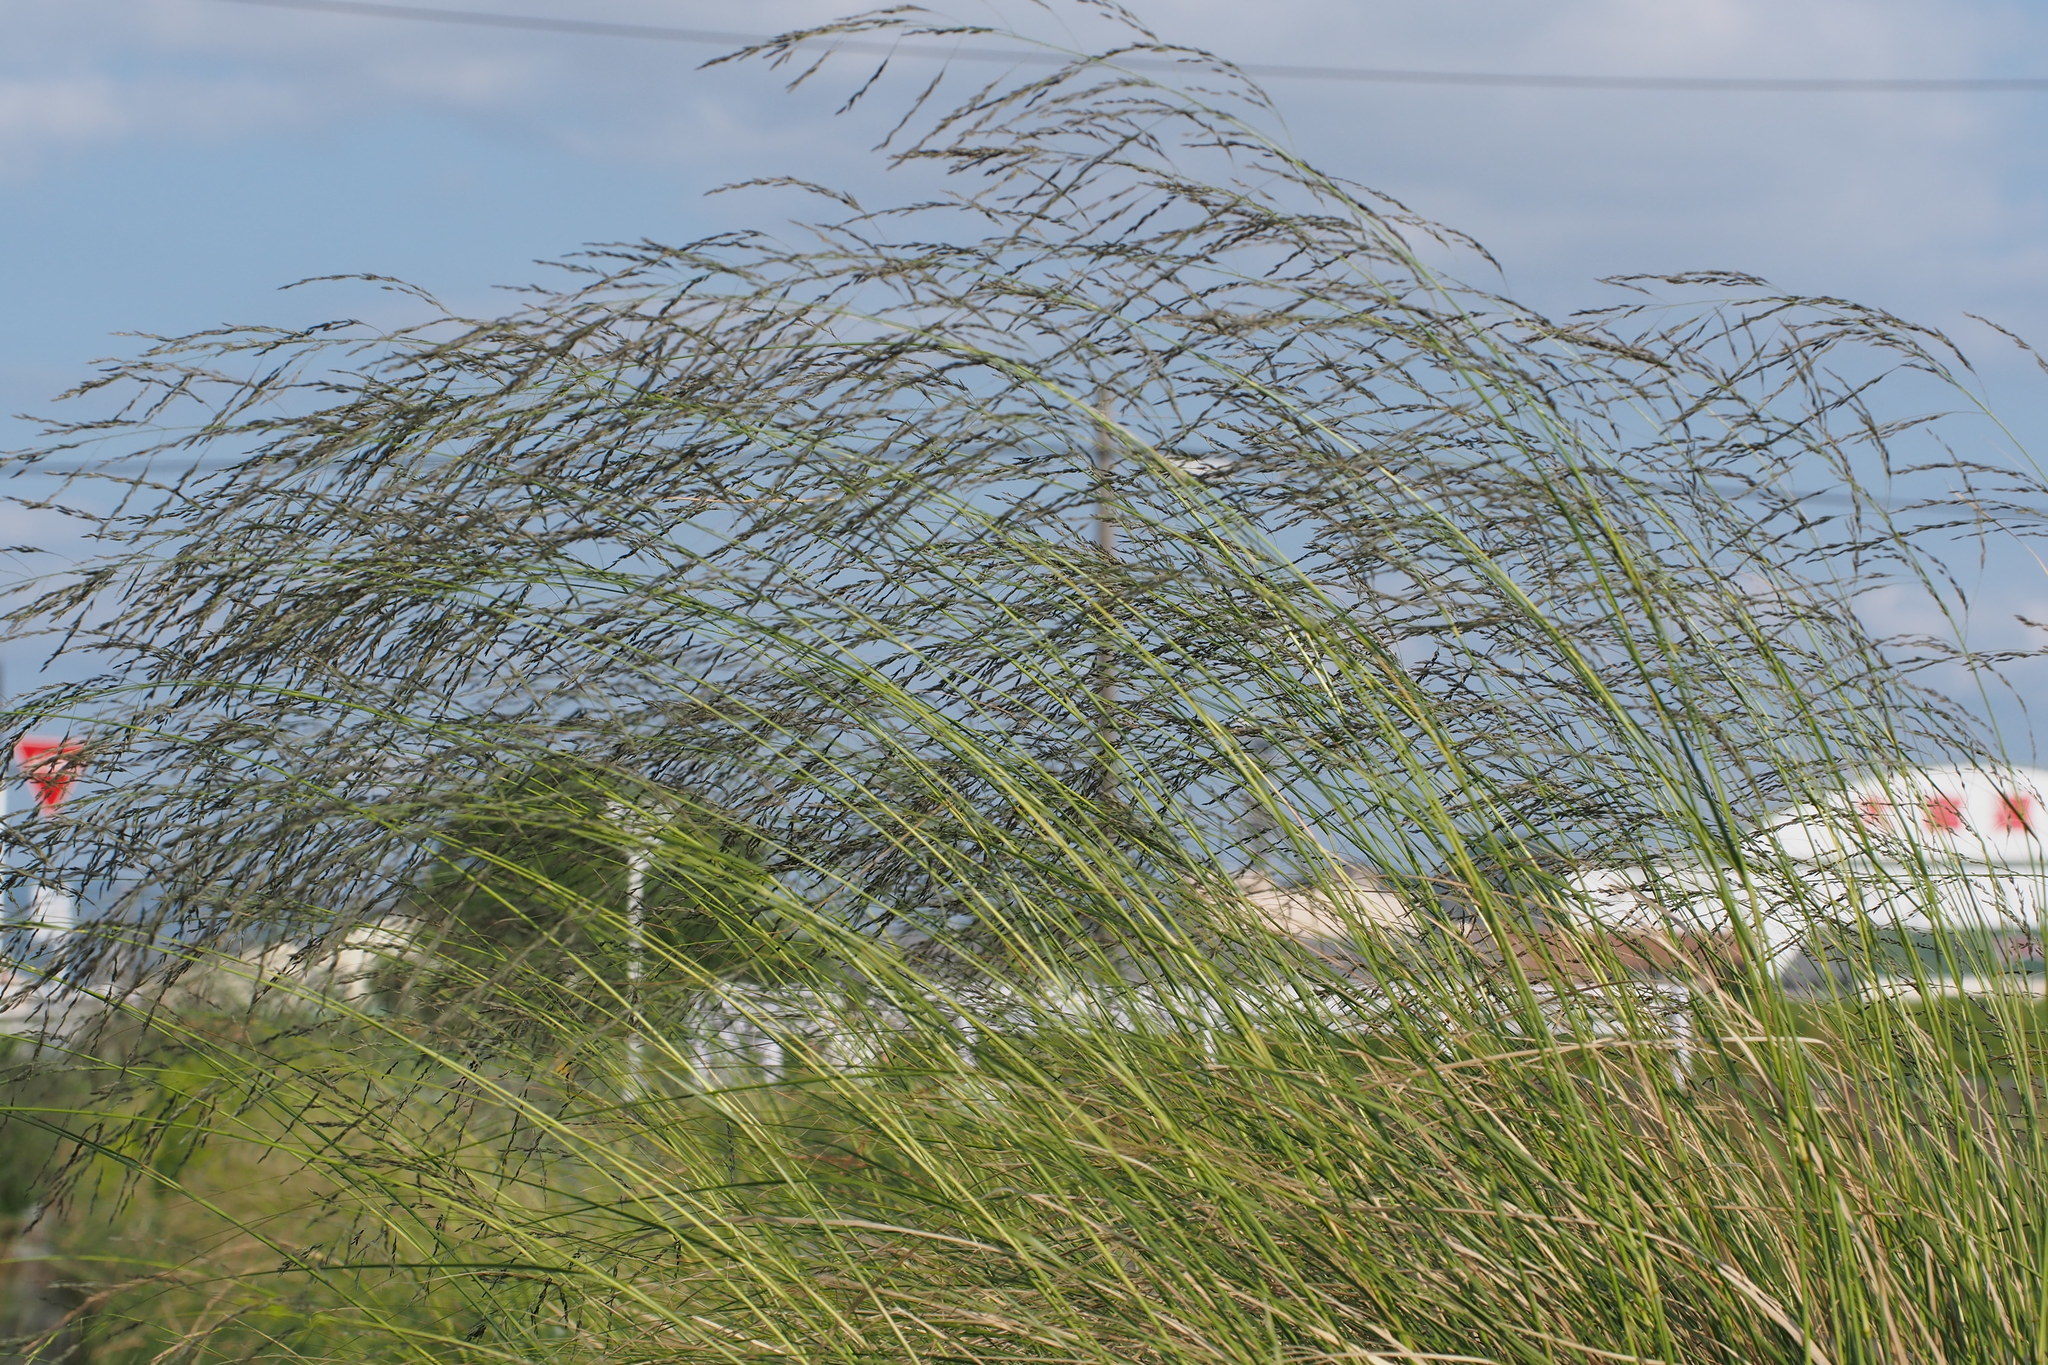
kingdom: Plantae
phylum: Tracheophyta
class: Liliopsida
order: Poales
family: Poaceae
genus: Eragrostis
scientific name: Eragrostis curvula
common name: African love-grass
